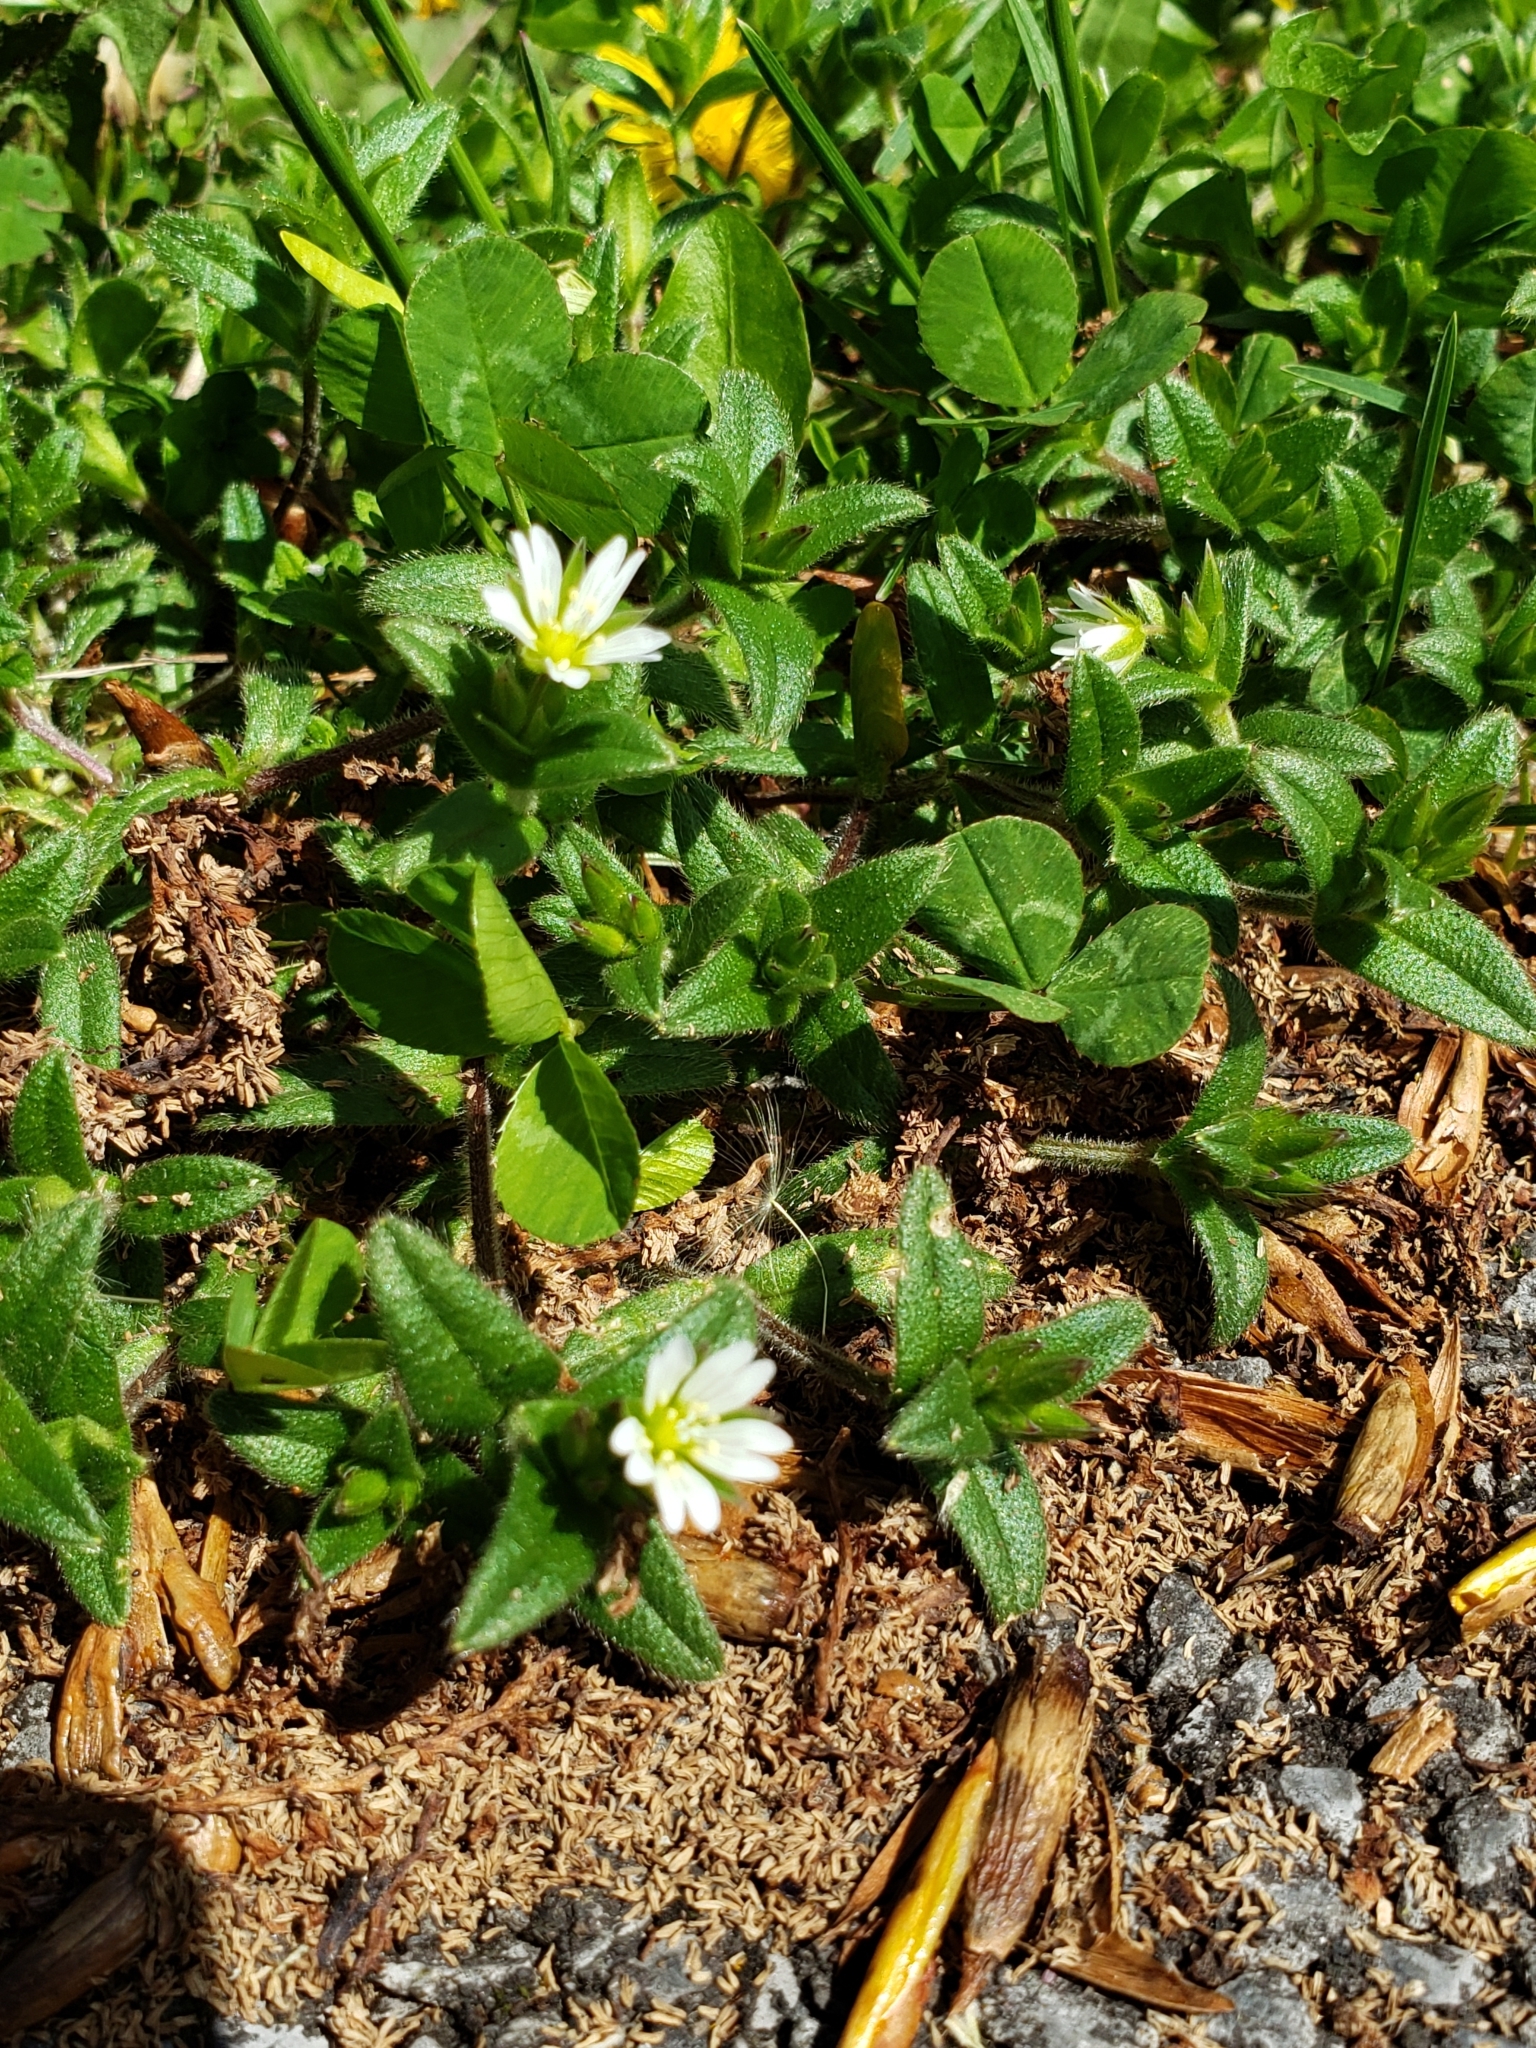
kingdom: Plantae
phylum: Tracheophyta
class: Magnoliopsida
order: Caryophyllales
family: Caryophyllaceae
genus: Cerastium
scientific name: Cerastium fontanum
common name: Common mouse-ear
